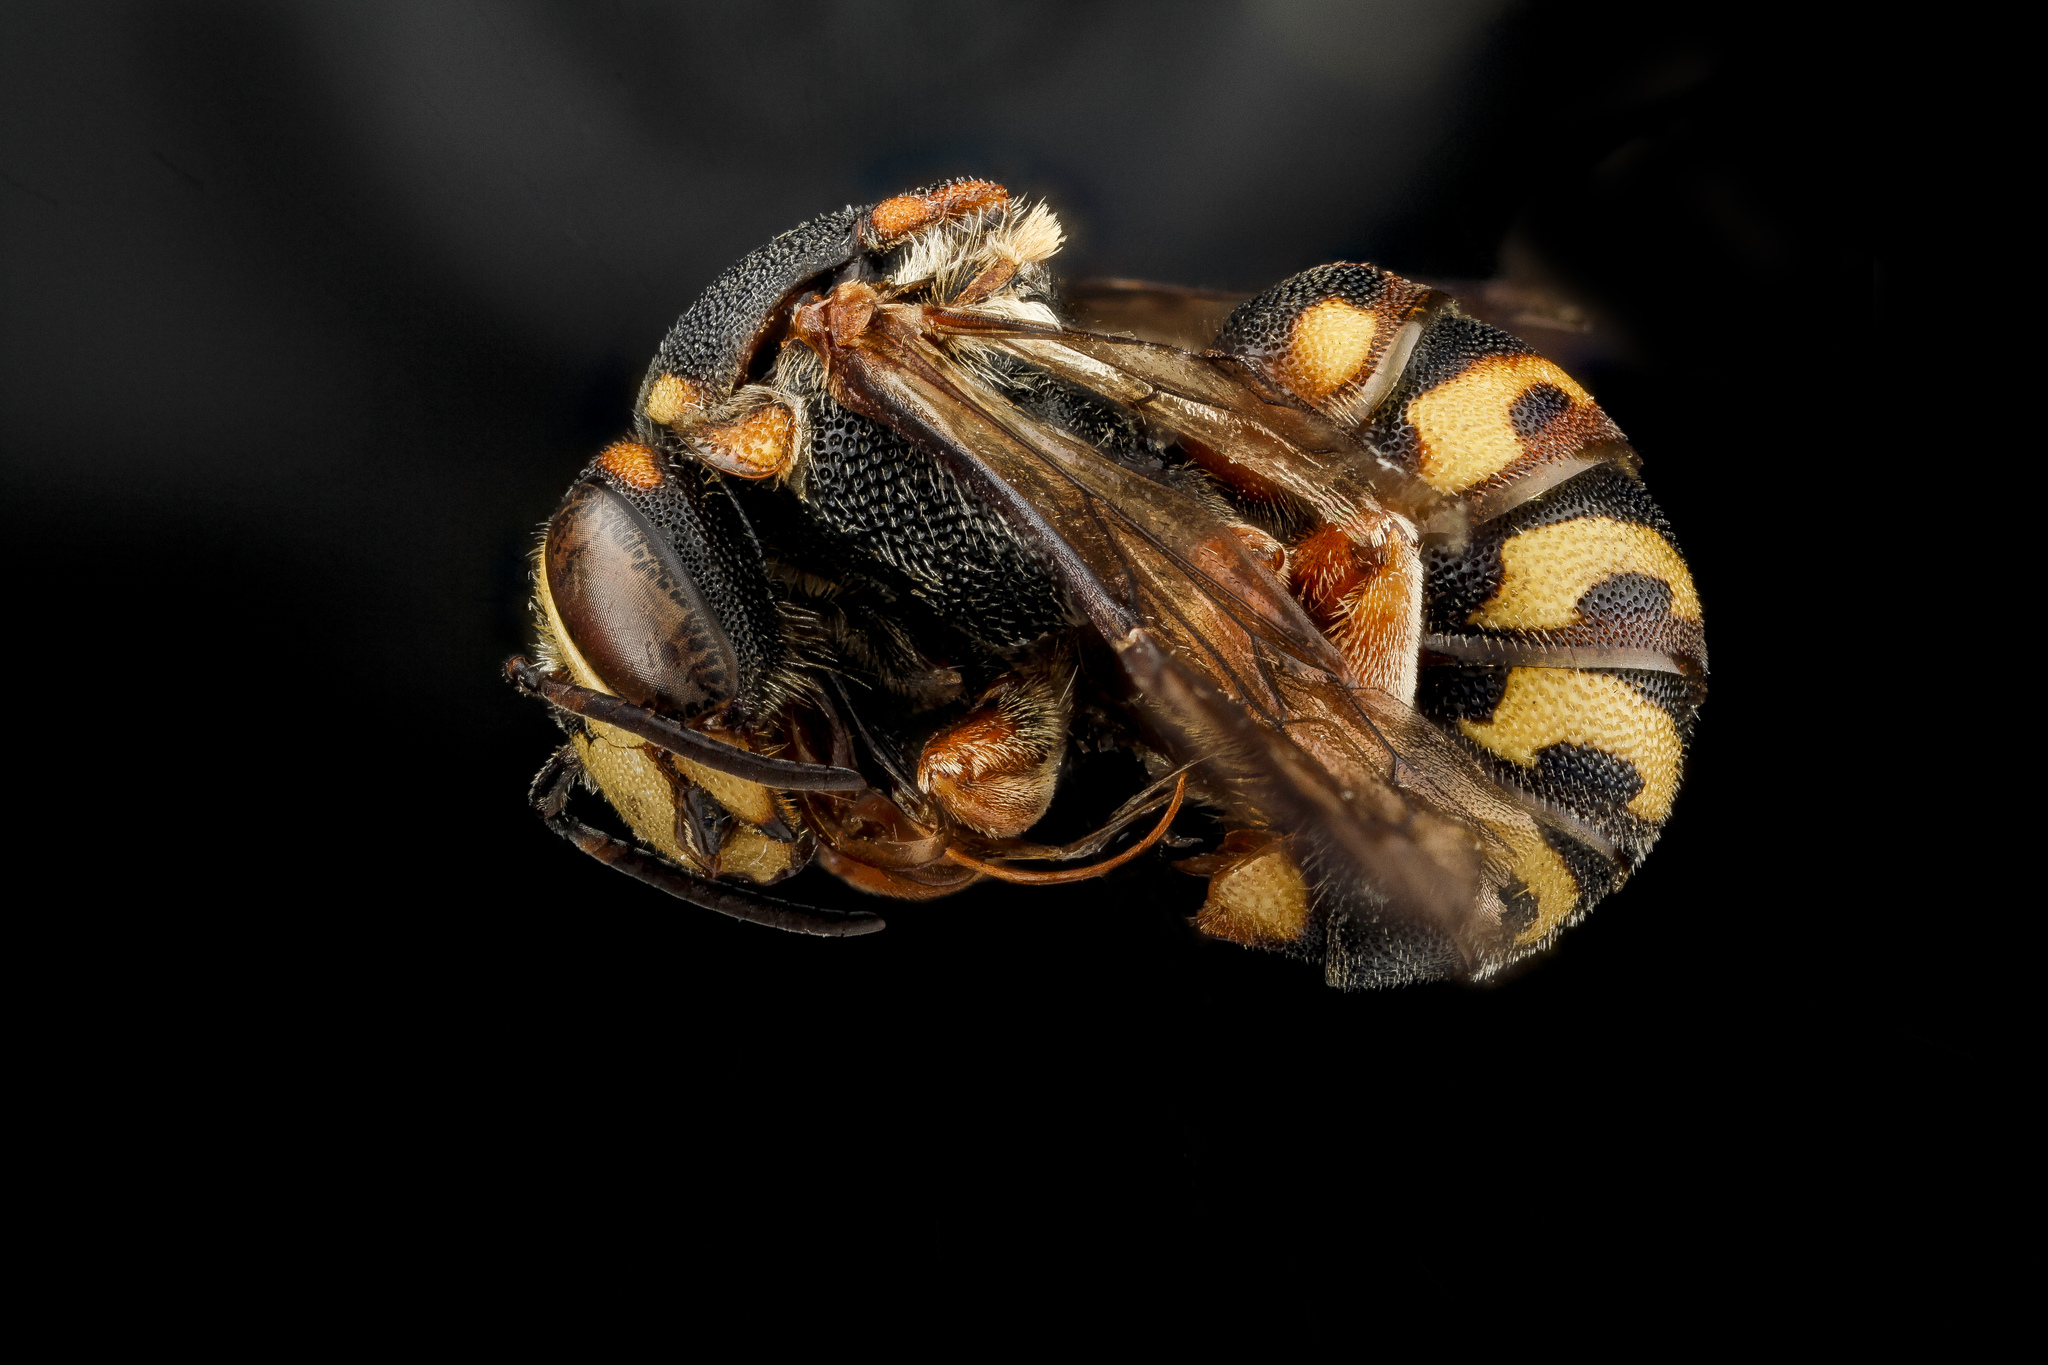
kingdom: Animalia
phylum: Arthropoda
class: Insecta
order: Hymenoptera
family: Megachilidae
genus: Dianthidium
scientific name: Dianthidium ulkei
